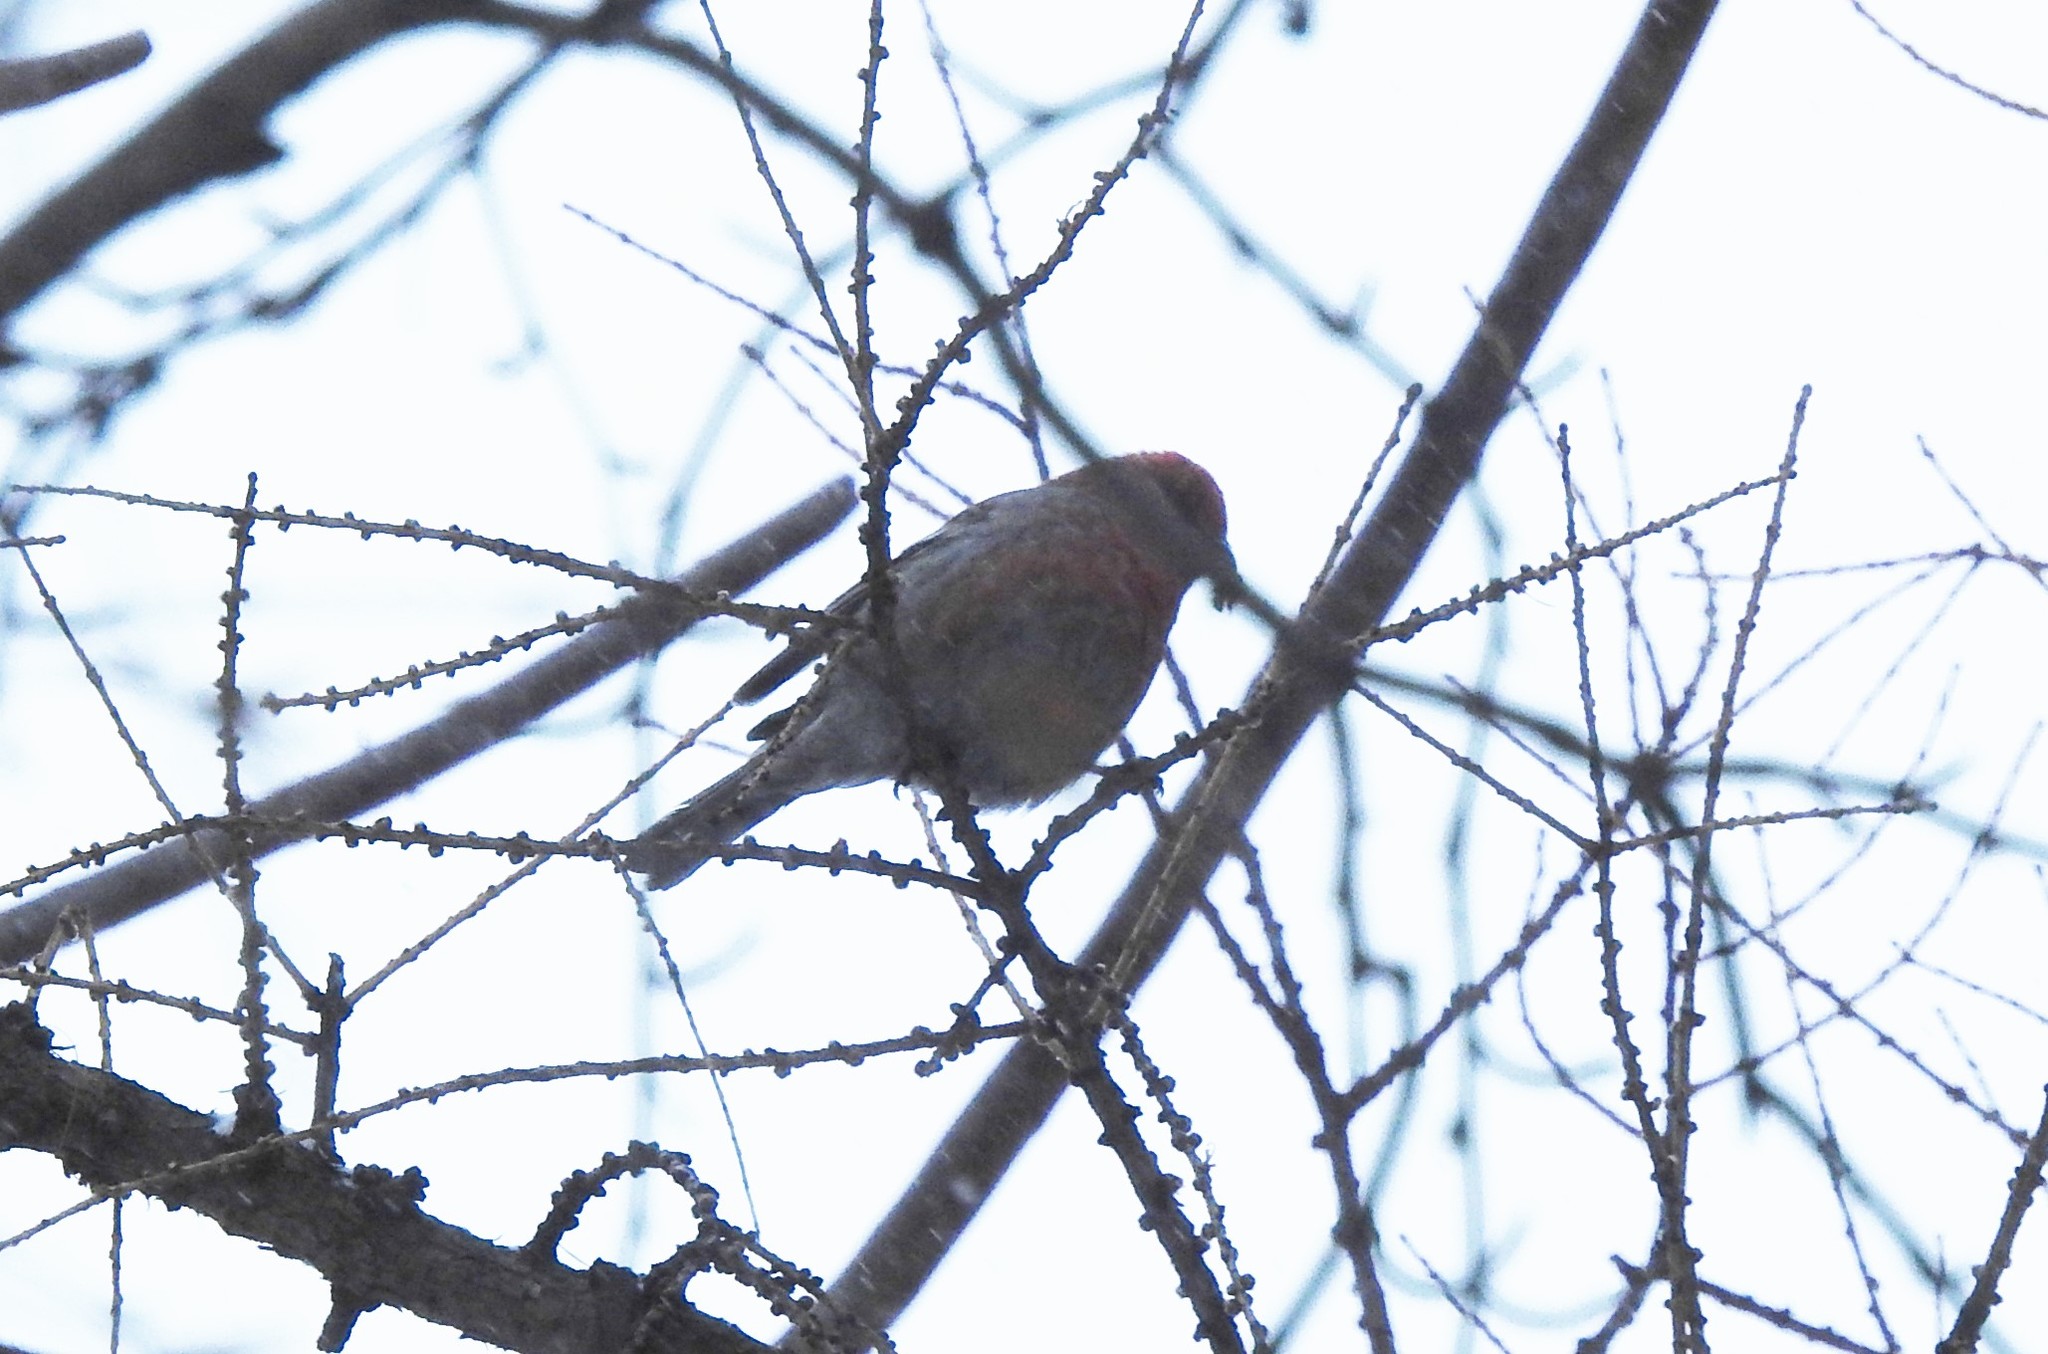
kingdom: Animalia
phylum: Chordata
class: Aves
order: Passeriformes
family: Fringillidae
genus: Pinicola
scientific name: Pinicola enucleator
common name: Pine grosbeak
